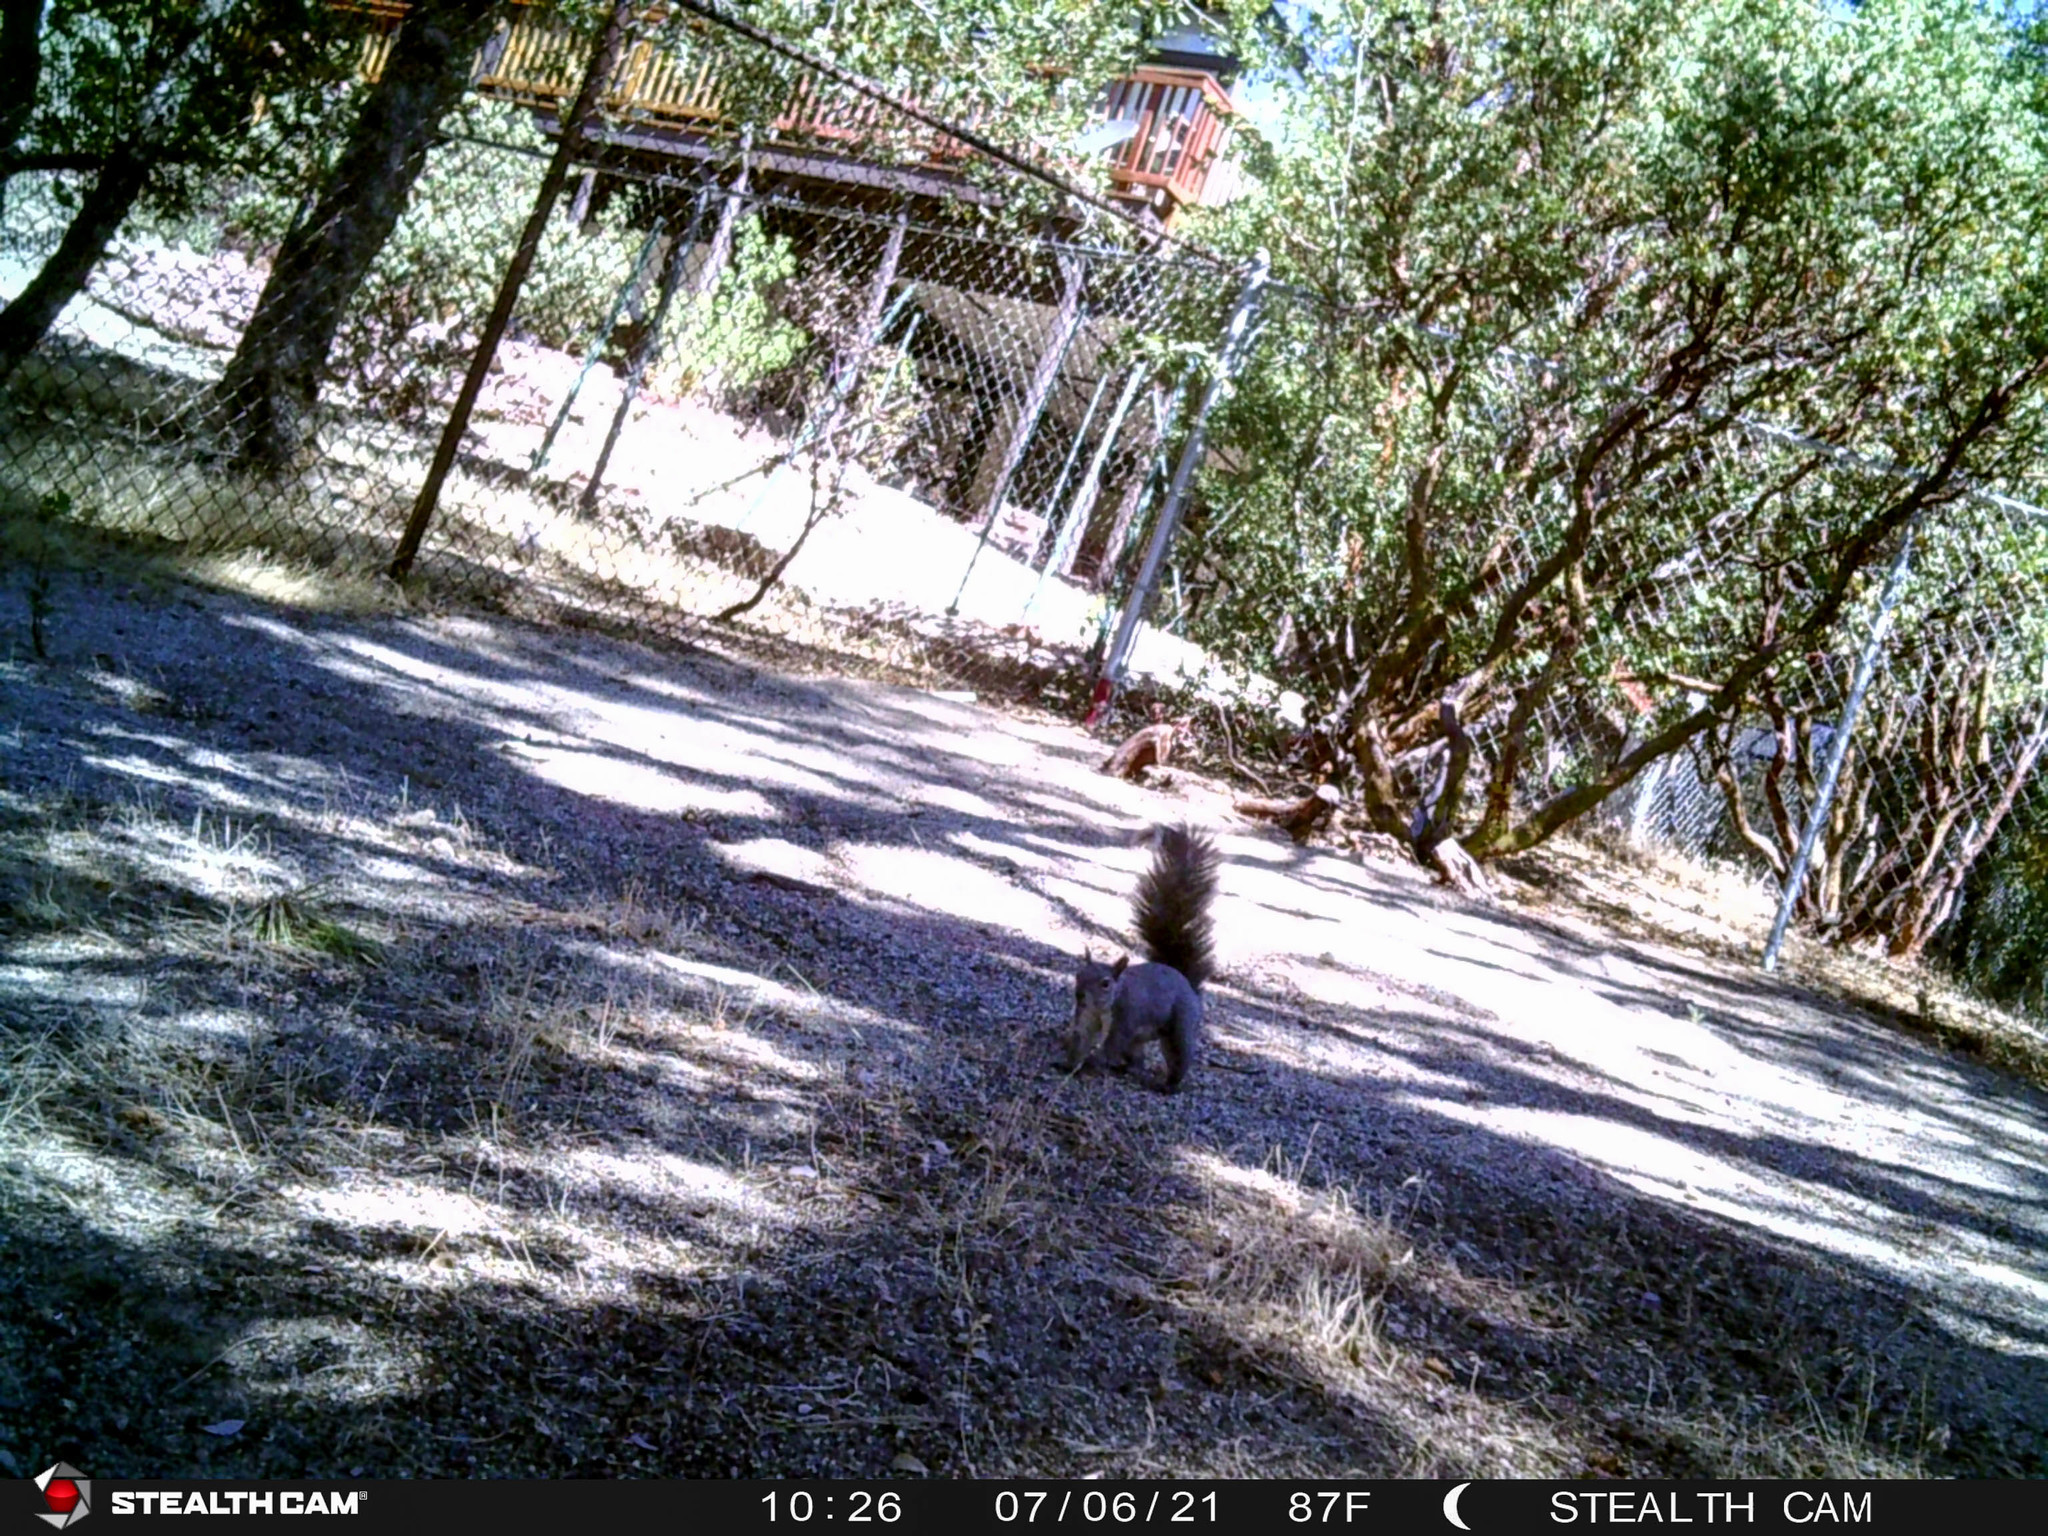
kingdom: Animalia
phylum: Chordata
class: Mammalia
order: Rodentia
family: Sciuridae
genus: Sciurus
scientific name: Sciurus griseus
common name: Western gray squirrel
